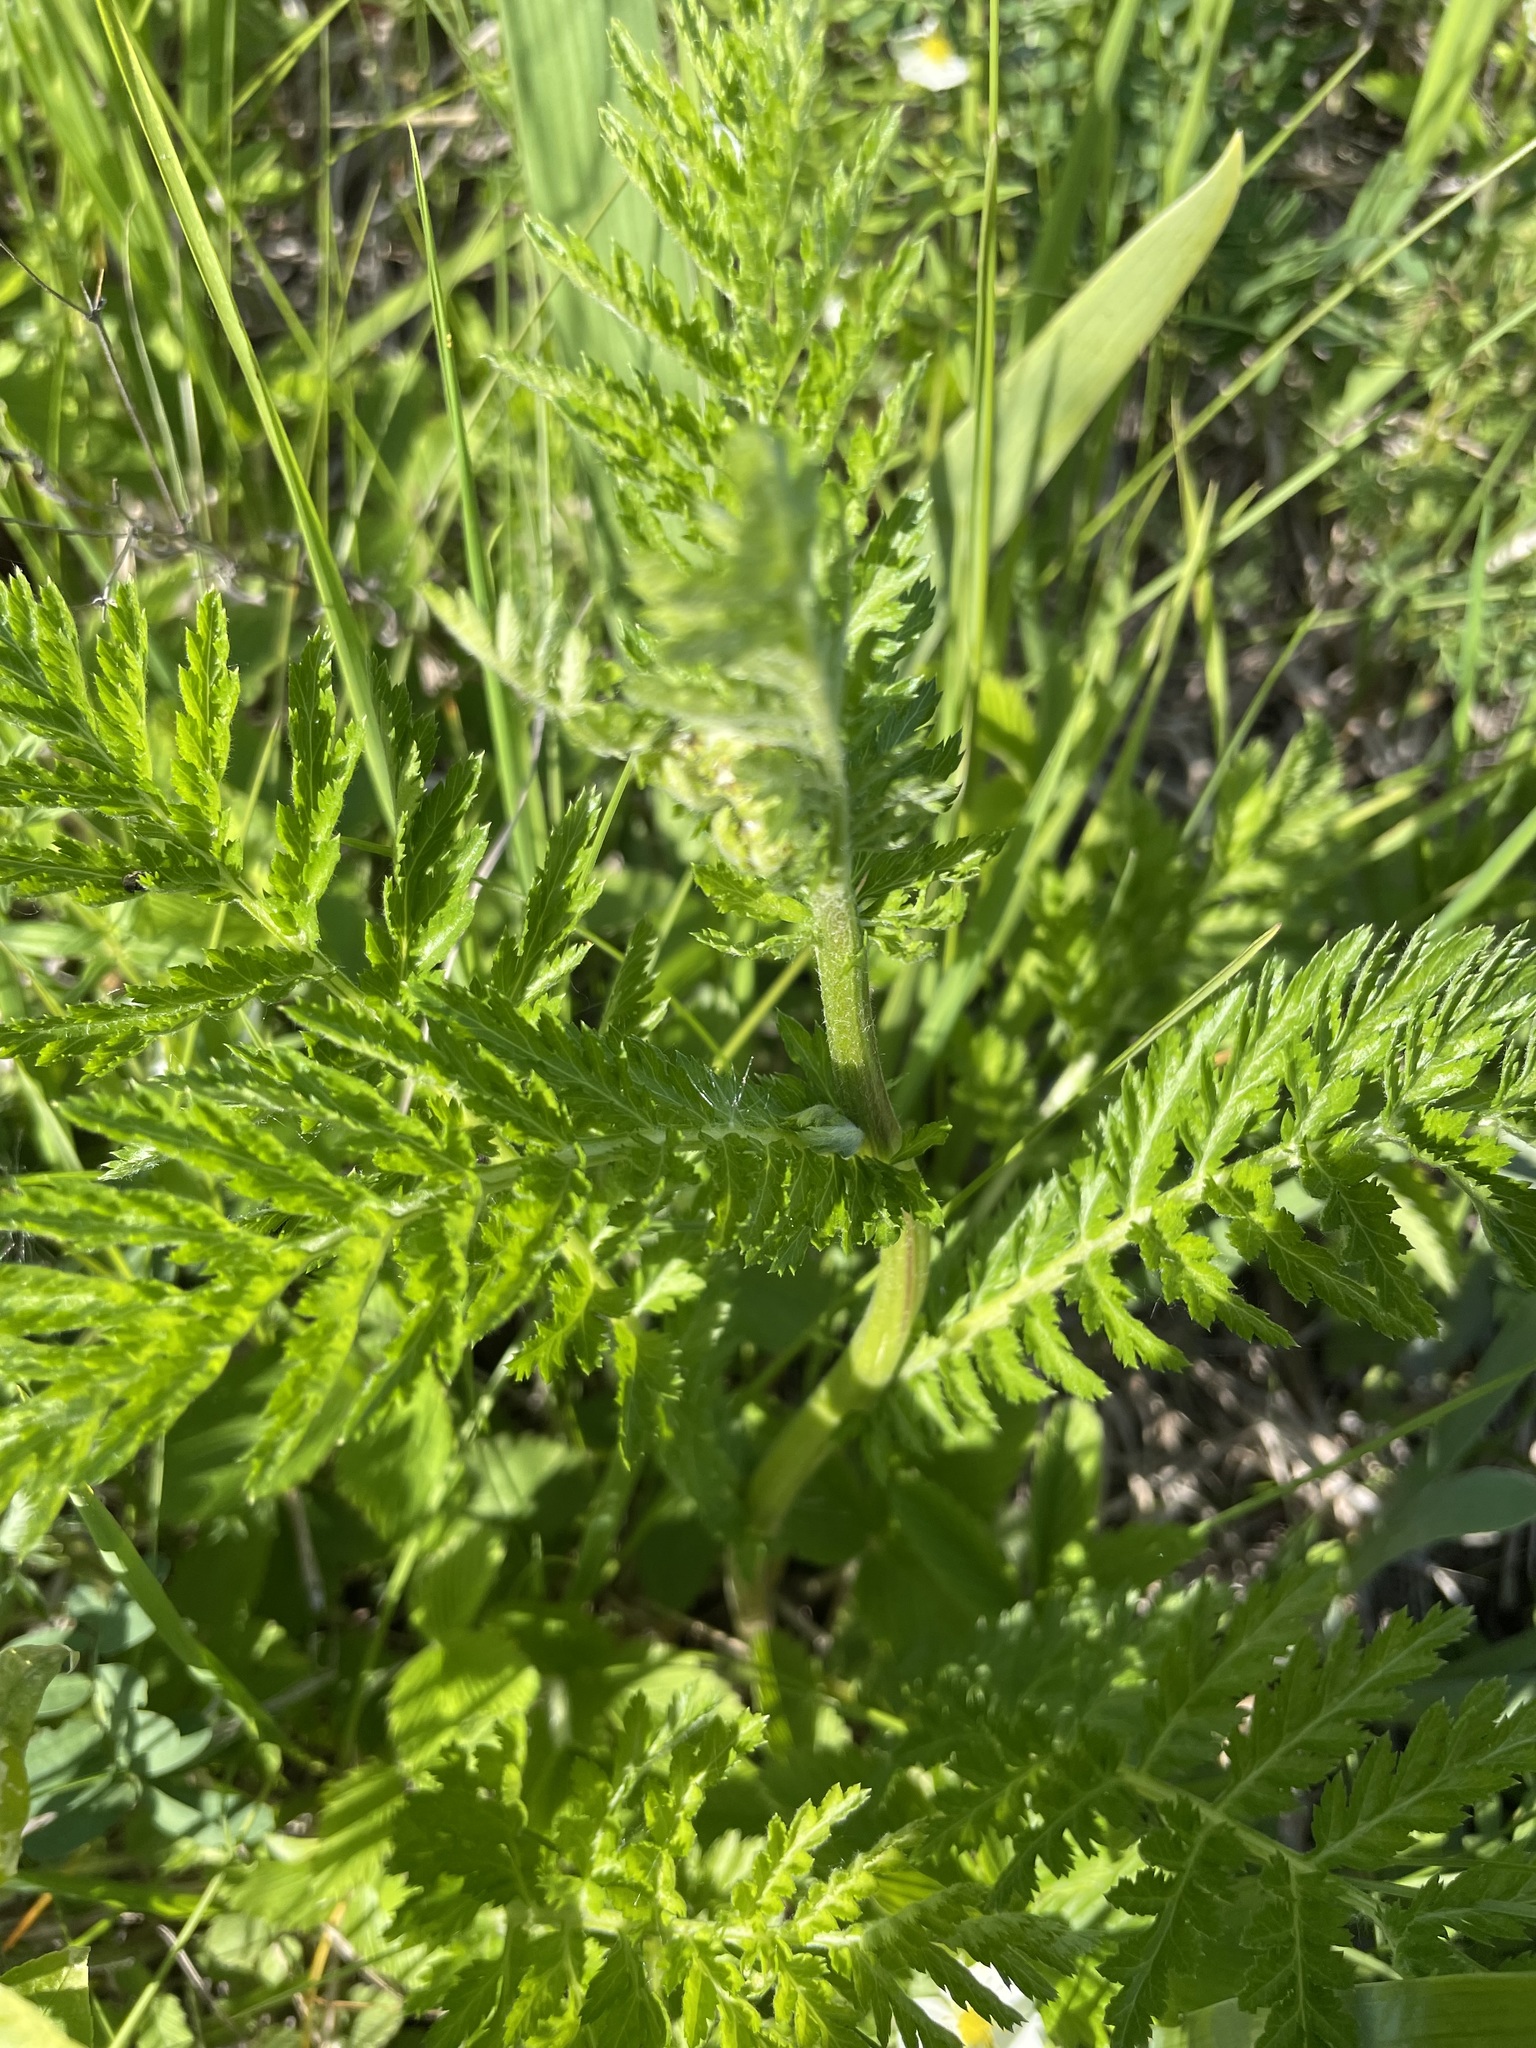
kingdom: Plantae
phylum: Tracheophyta
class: Magnoliopsida
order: Asterales
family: Asteraceae
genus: Tanacetum
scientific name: Tanacetum corymbosum
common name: Scentless feverfew
